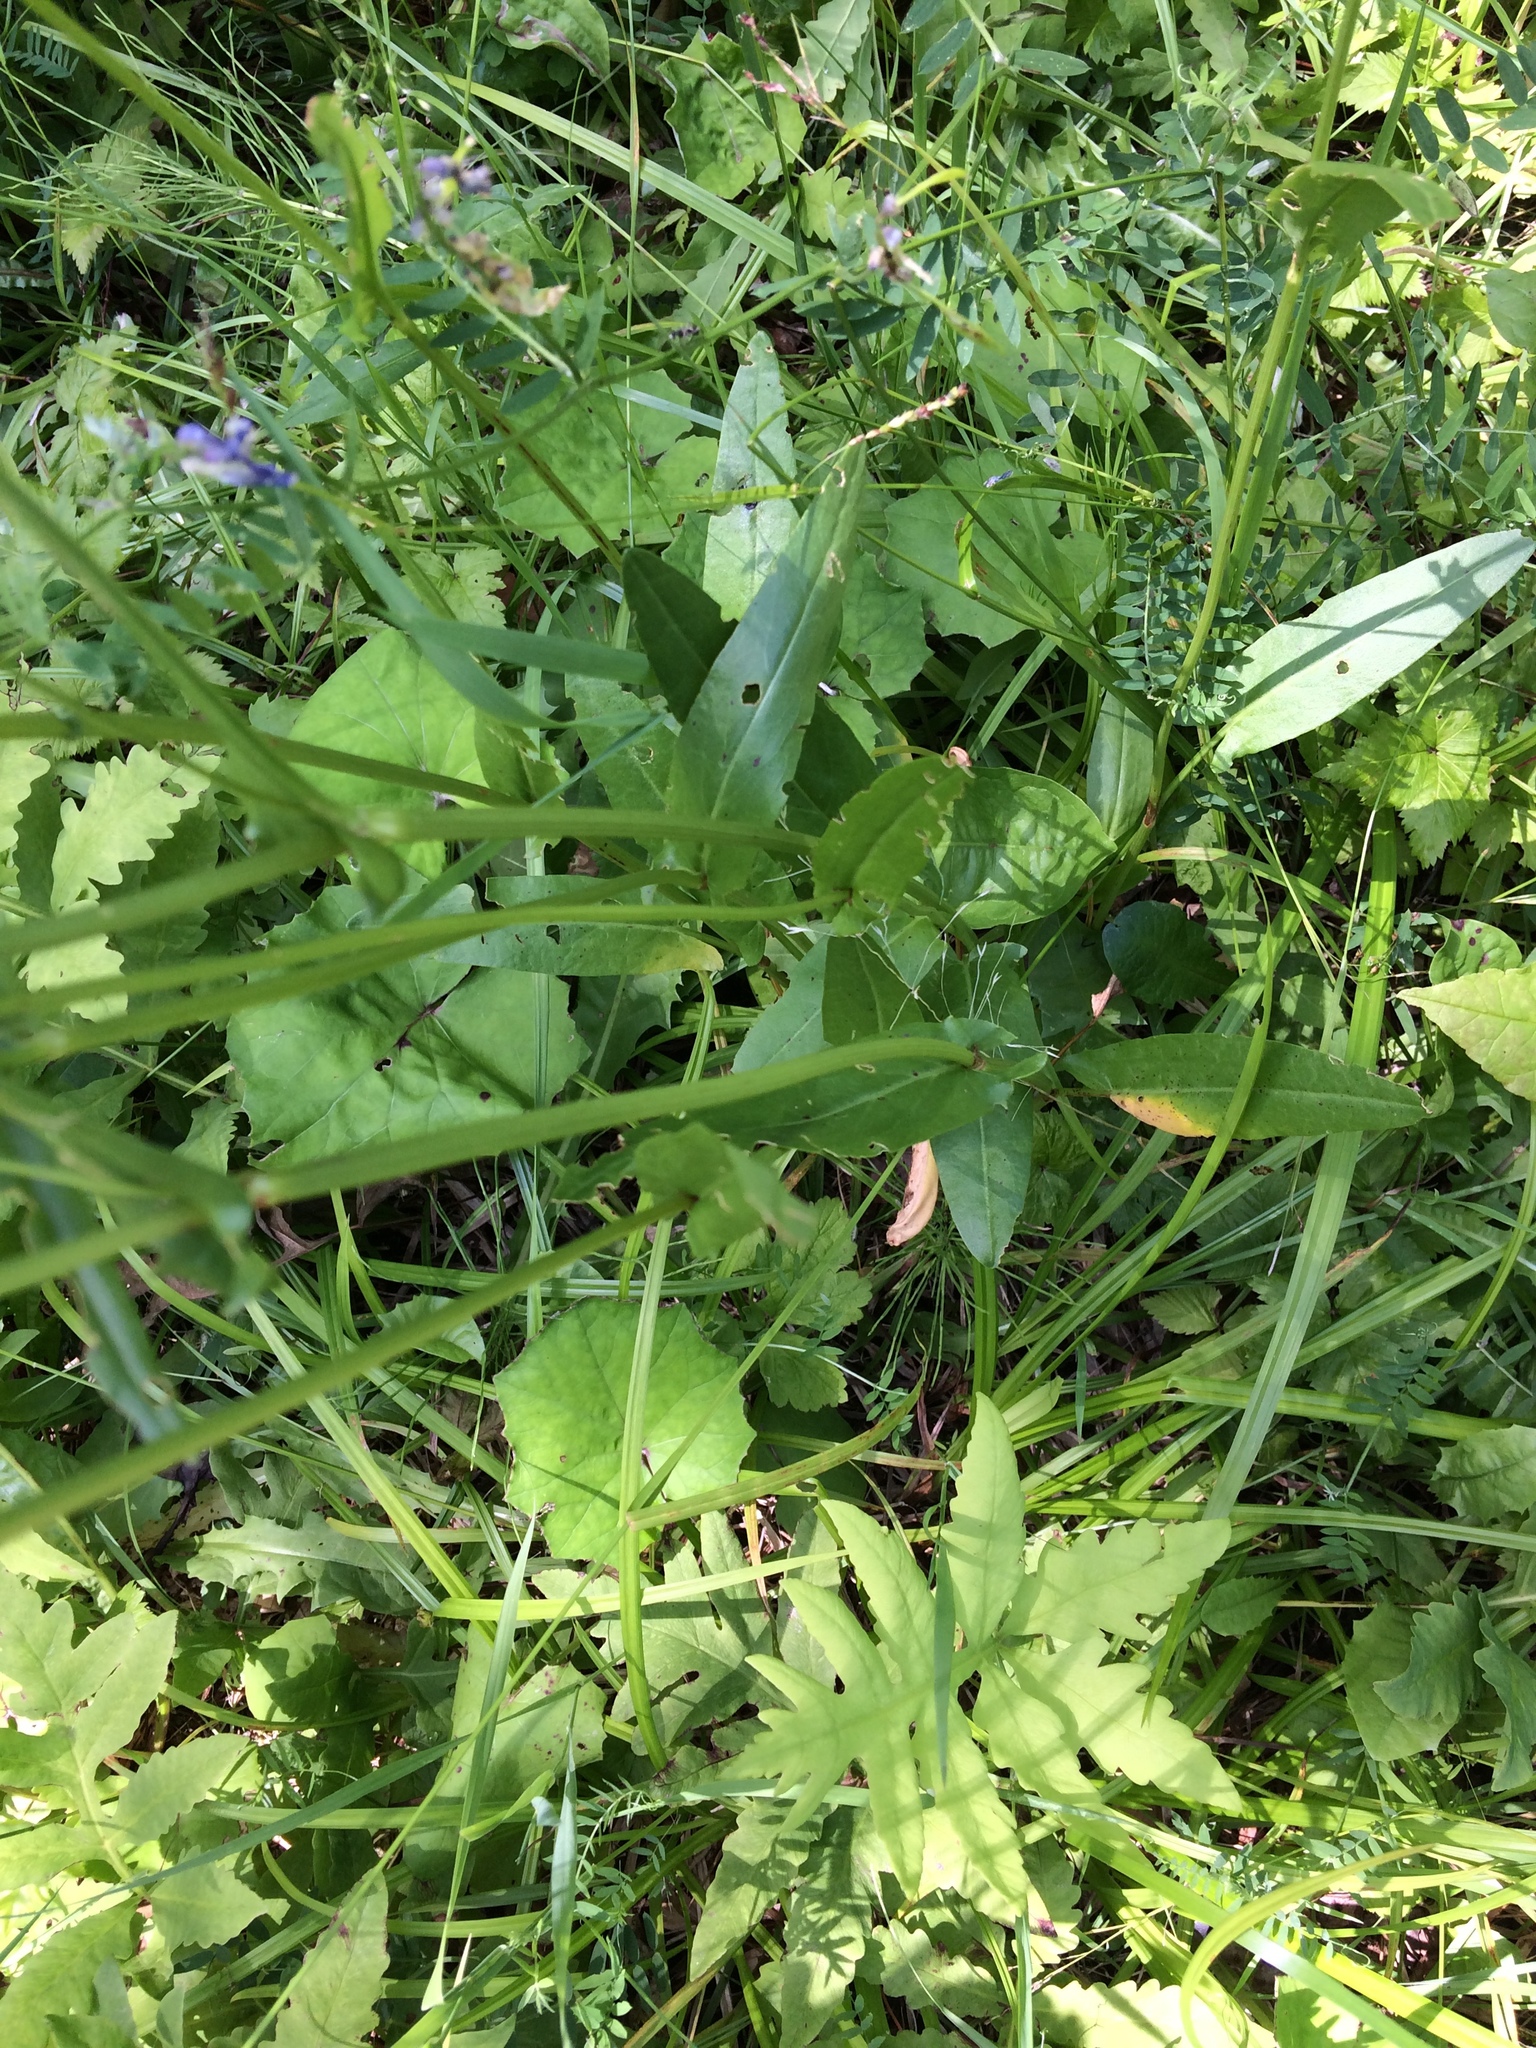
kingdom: Plantae
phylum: Tracheophyta
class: Magnoliopsida
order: Caryophyllales
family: Polygonaceae
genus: Rumex
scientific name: Rumex acetosa
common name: Garden sorrel
